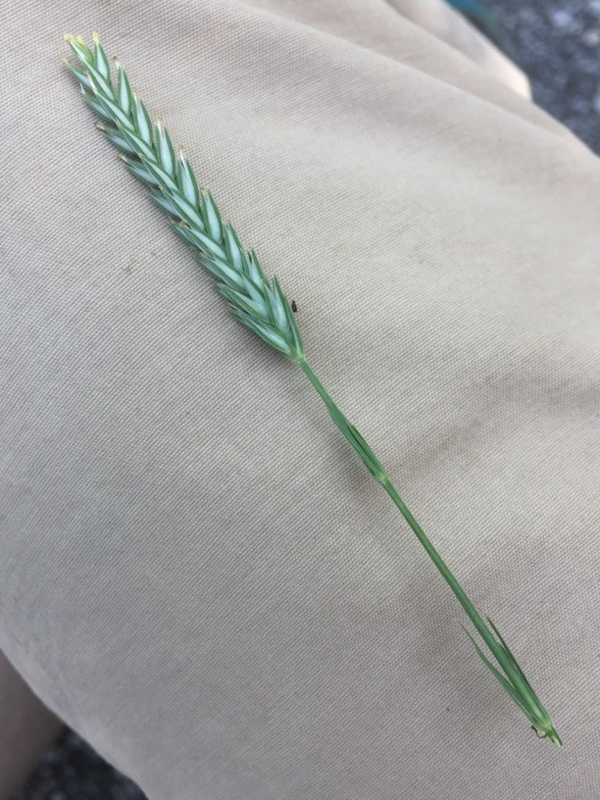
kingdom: Plantae
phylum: Tracheophyta
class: Magnoliopsida
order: Gentianales
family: Rubiaceae
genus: Crucianella
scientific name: Crucianella angustifolia
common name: Narrowleaf crucianella
